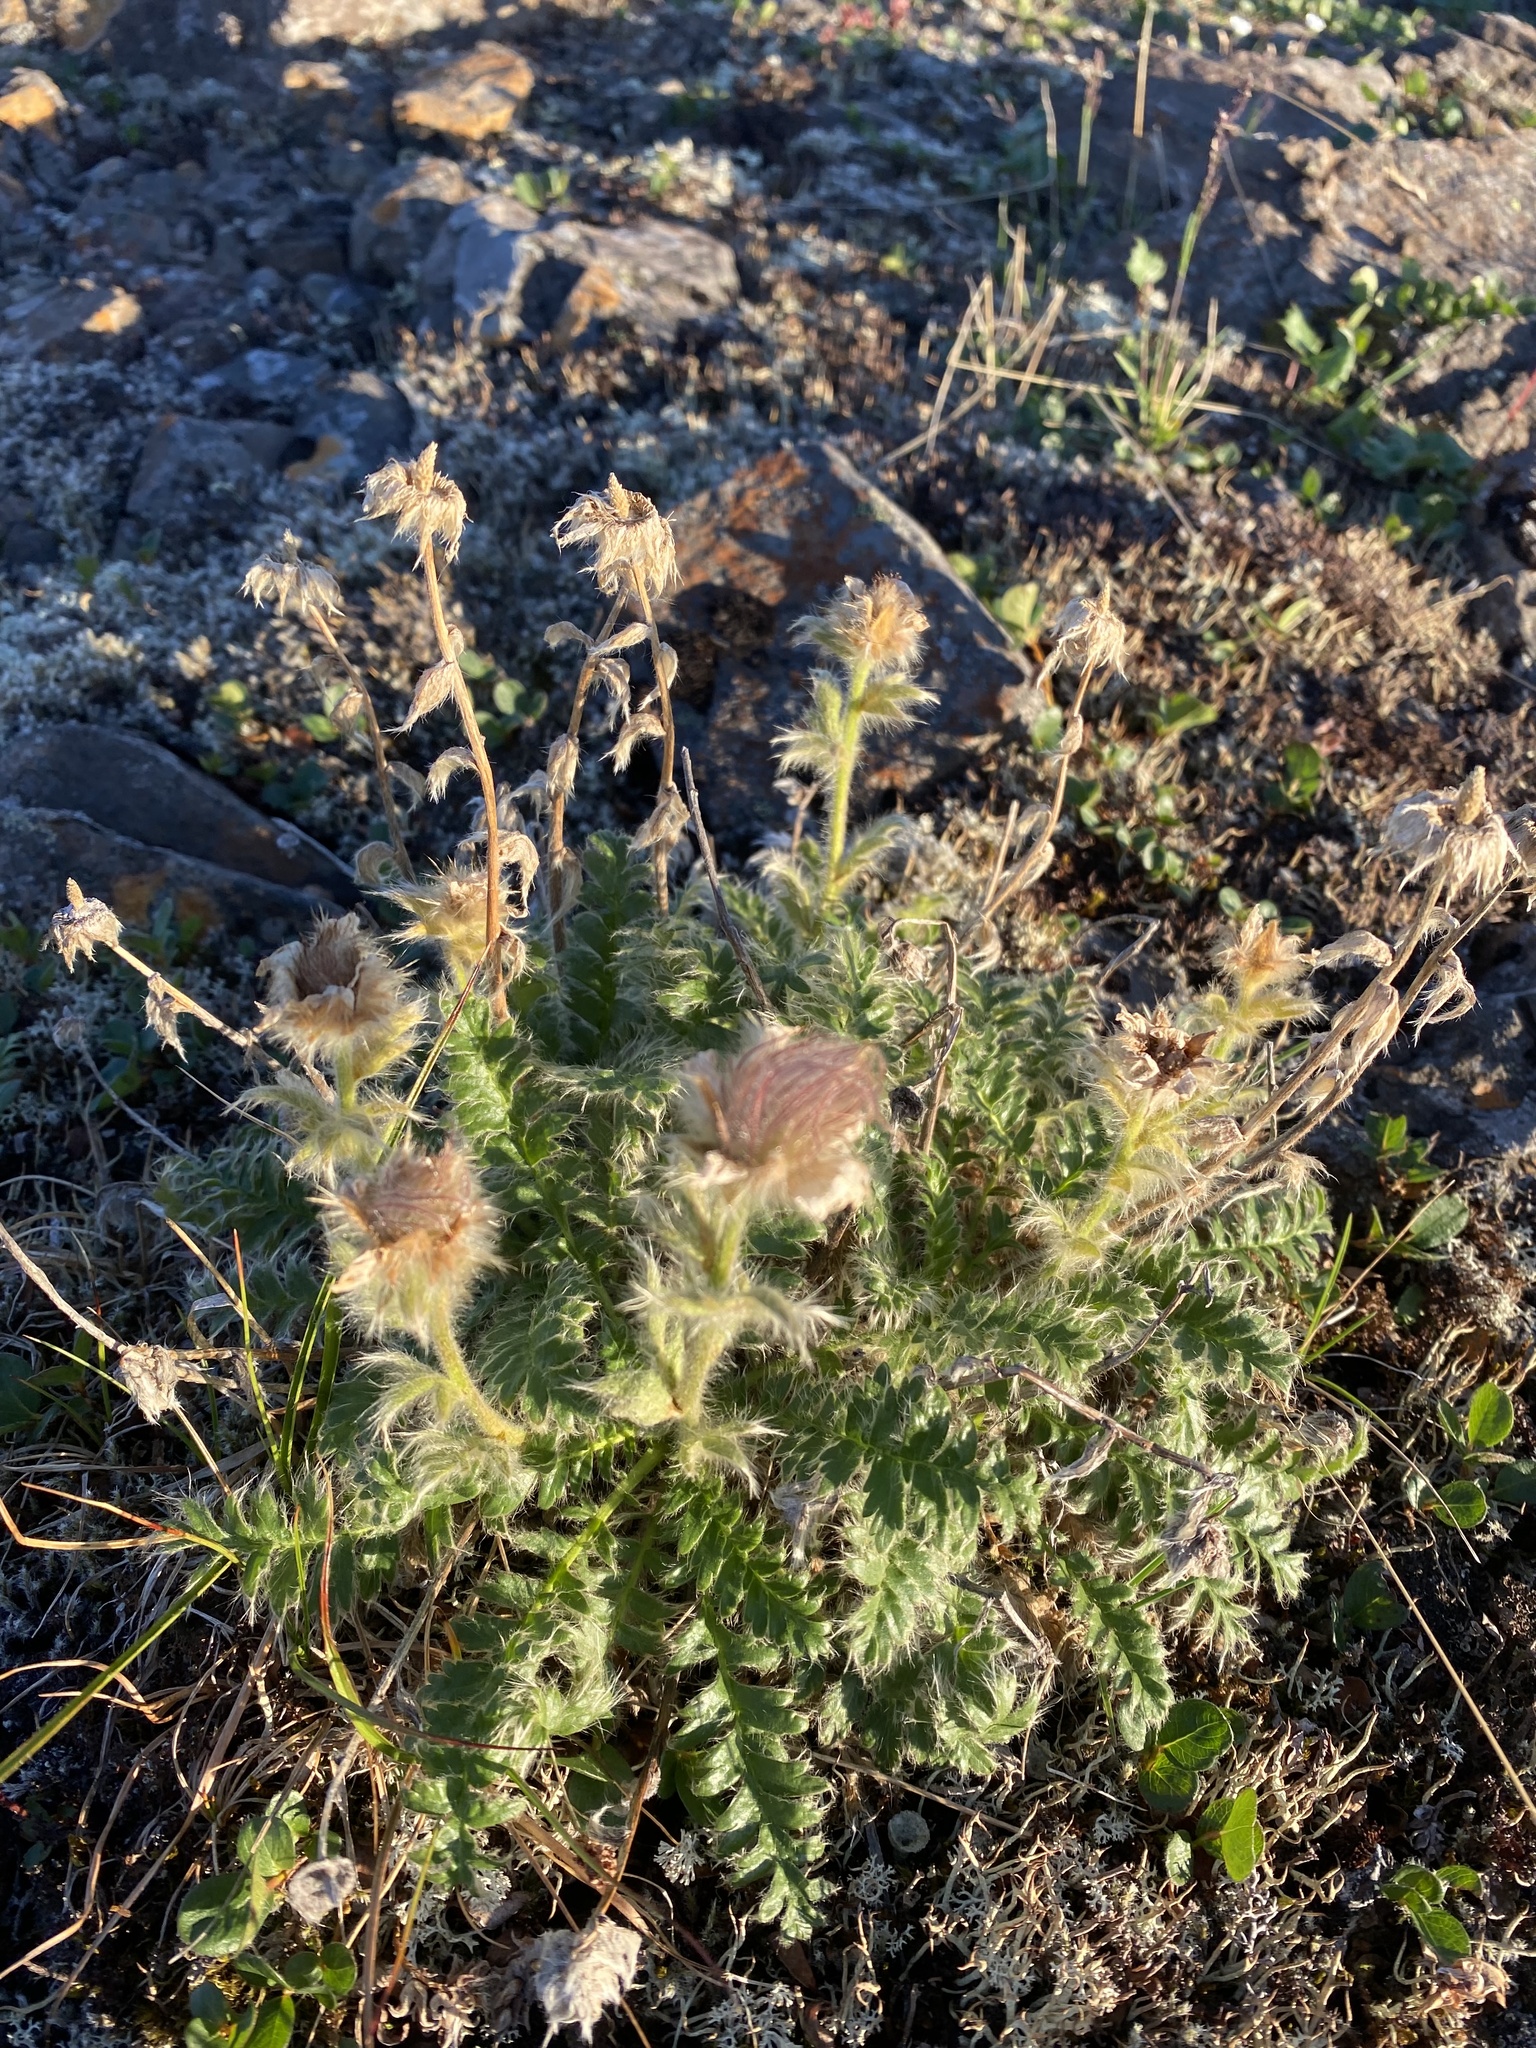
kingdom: Plantae
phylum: Tracheophyta
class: Magnoliopsida
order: Rosales
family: Rosaceae
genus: Geum
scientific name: Geum glaciale
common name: Glacier avens
